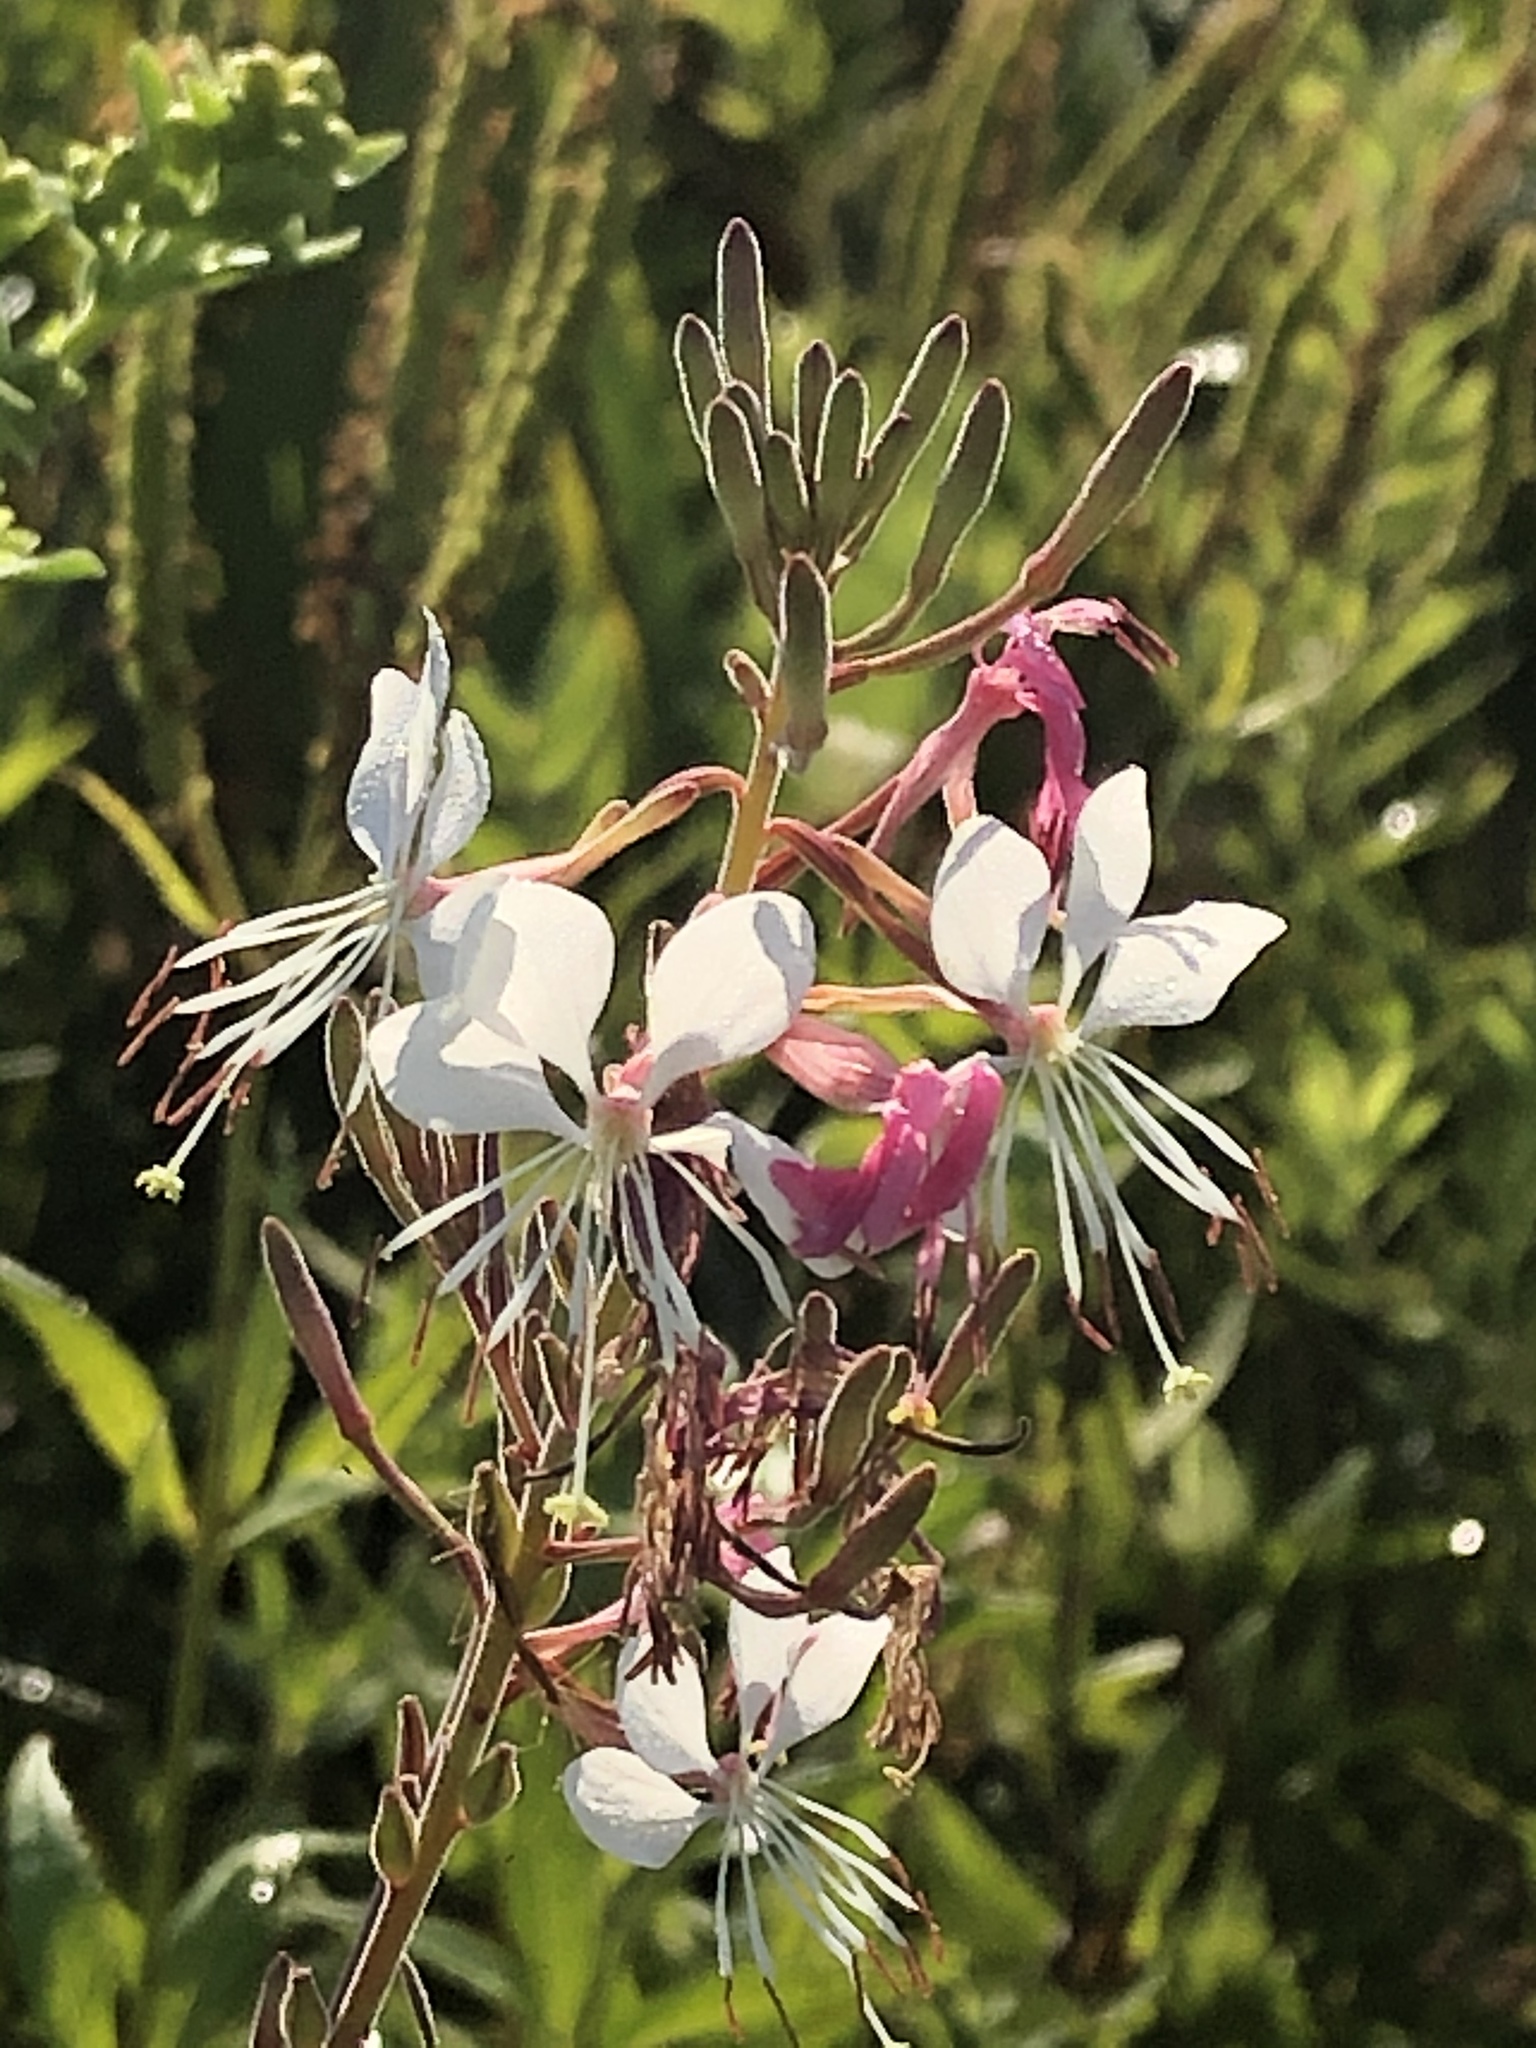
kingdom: Plantae
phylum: Tracheophyta
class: Magnoliopsida
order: Myrtales
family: Onagraceae
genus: Oenothera
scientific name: Oenothera gaura
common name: Biennial beeblossom
